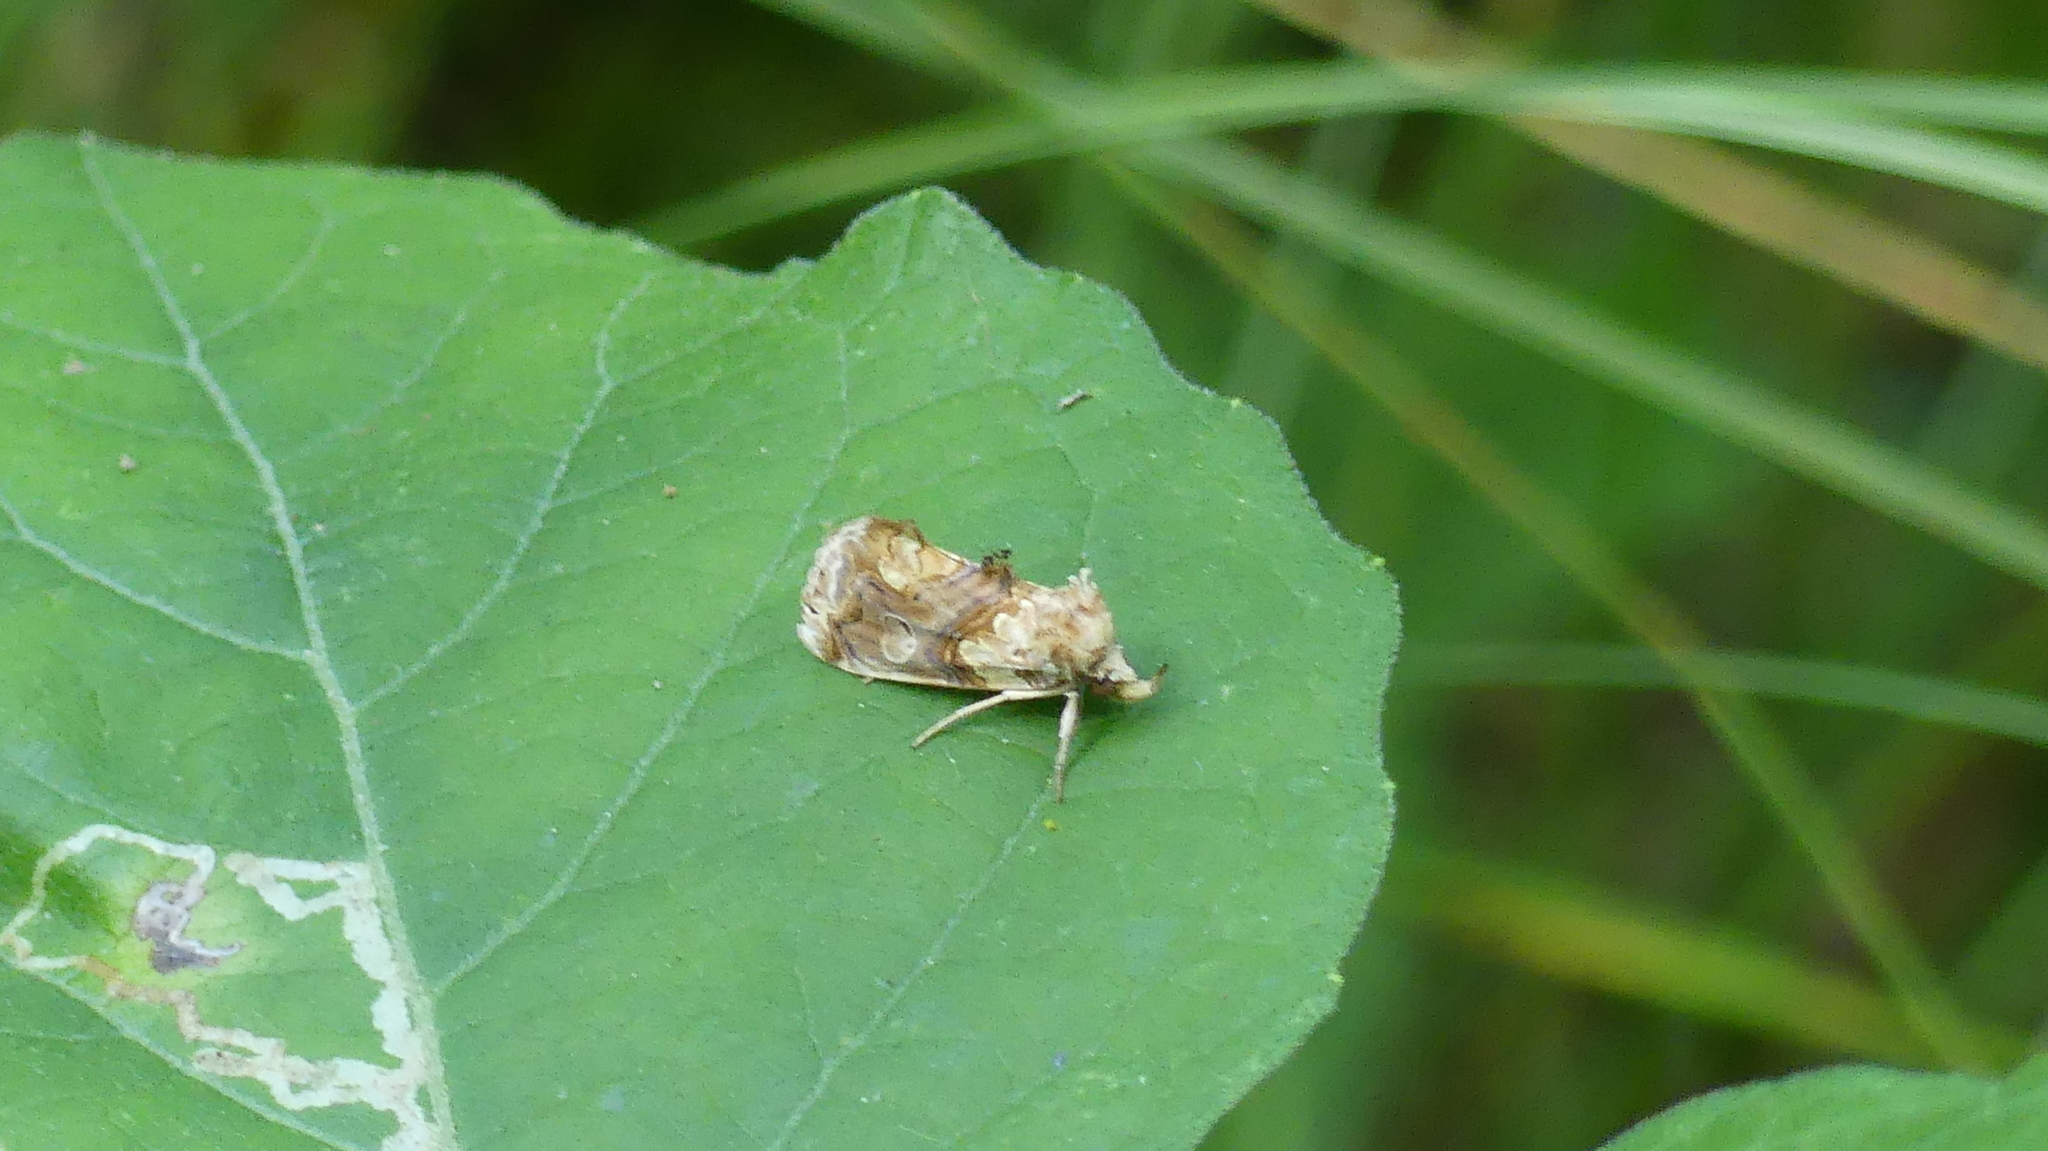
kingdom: Animalia
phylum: Arthropoda
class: Insecta
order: Lepidoptera
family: Erebidae
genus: Plusiodonta
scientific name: Plusiodonta compressipalpis
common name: Moonseed moth
